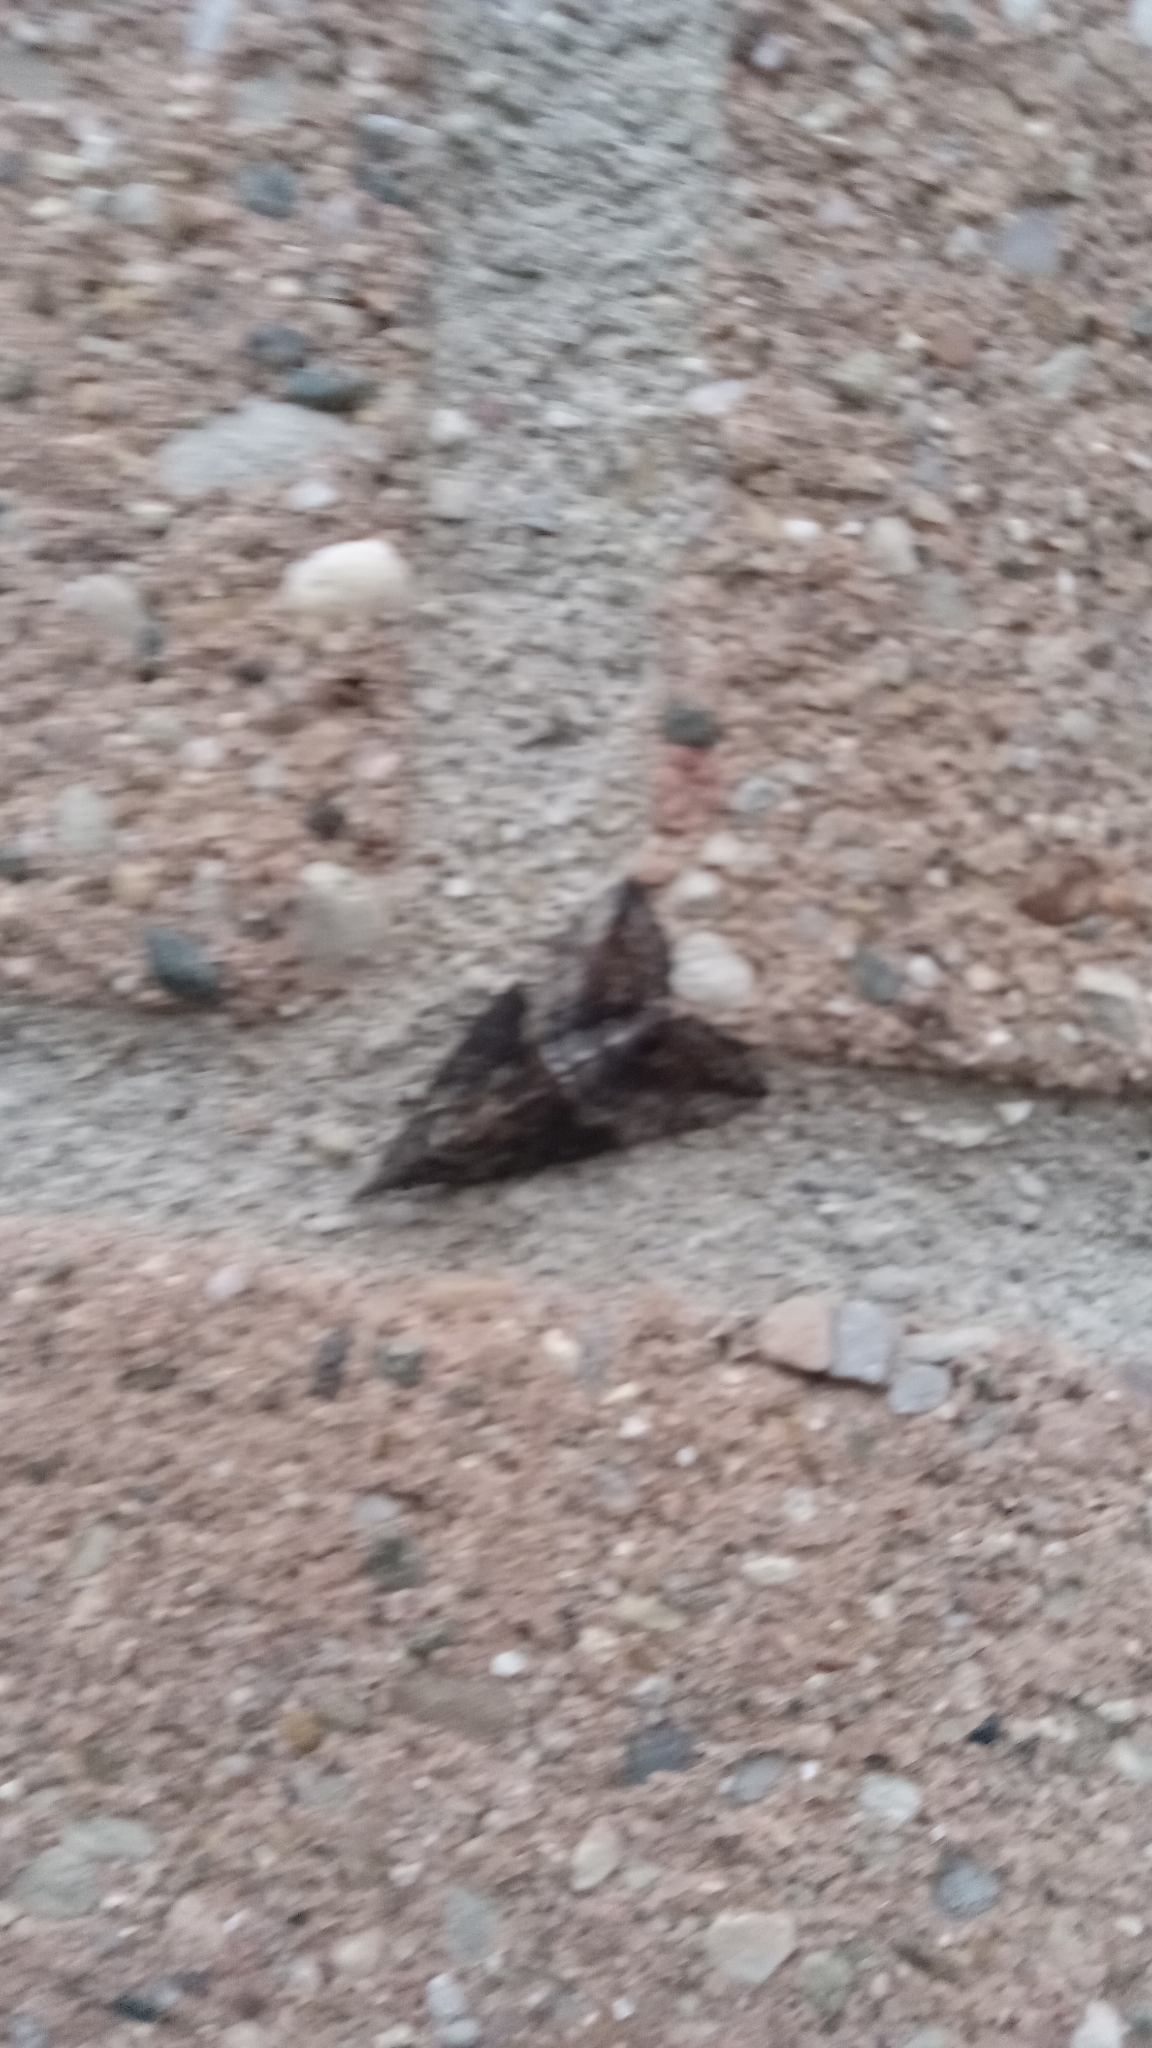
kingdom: Animalia
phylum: Arthropoda
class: Insecta
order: Lepidoptera
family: Erebidae
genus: Hypena
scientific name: Hypena scabra
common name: Green cloverworm
